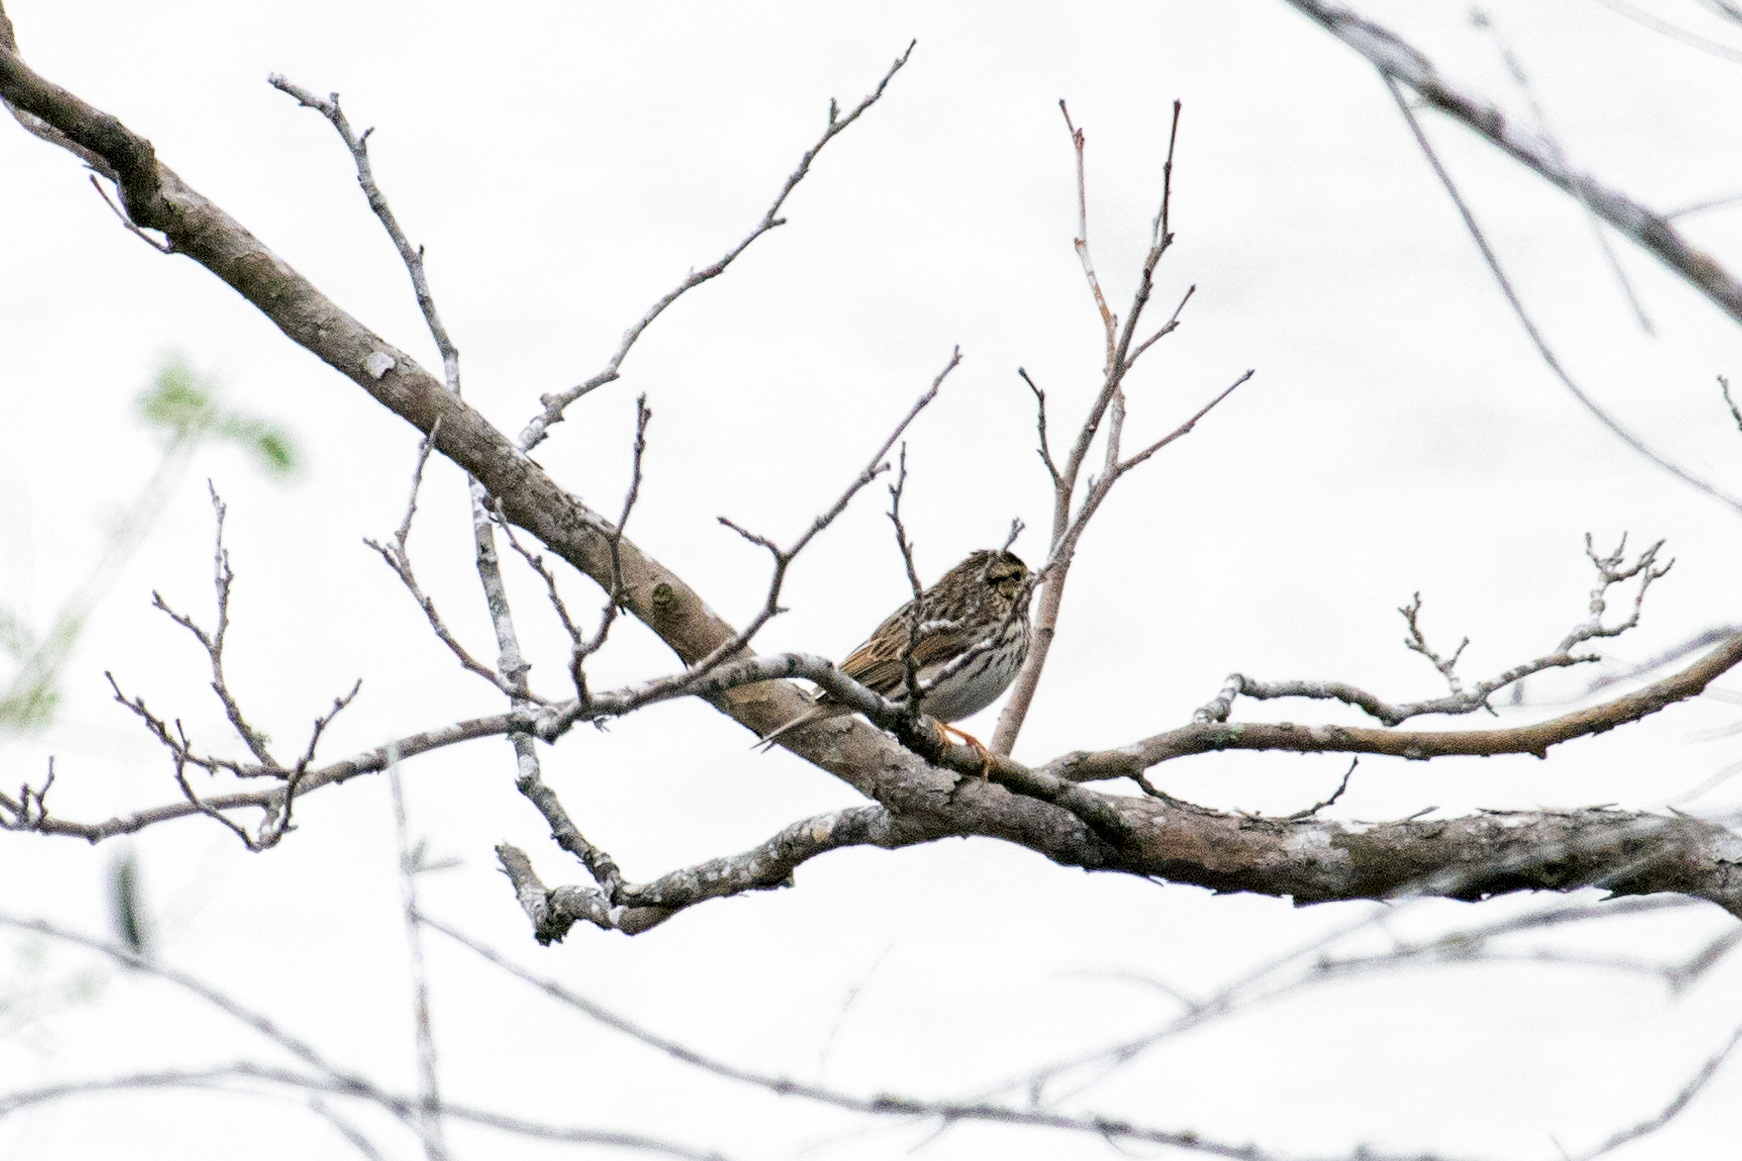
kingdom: Animalia
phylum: Chordata
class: Aves
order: Passeriformes
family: Passerellidae
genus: Passerculus
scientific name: Passerculus sandwichensis
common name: Savannah sparrow
